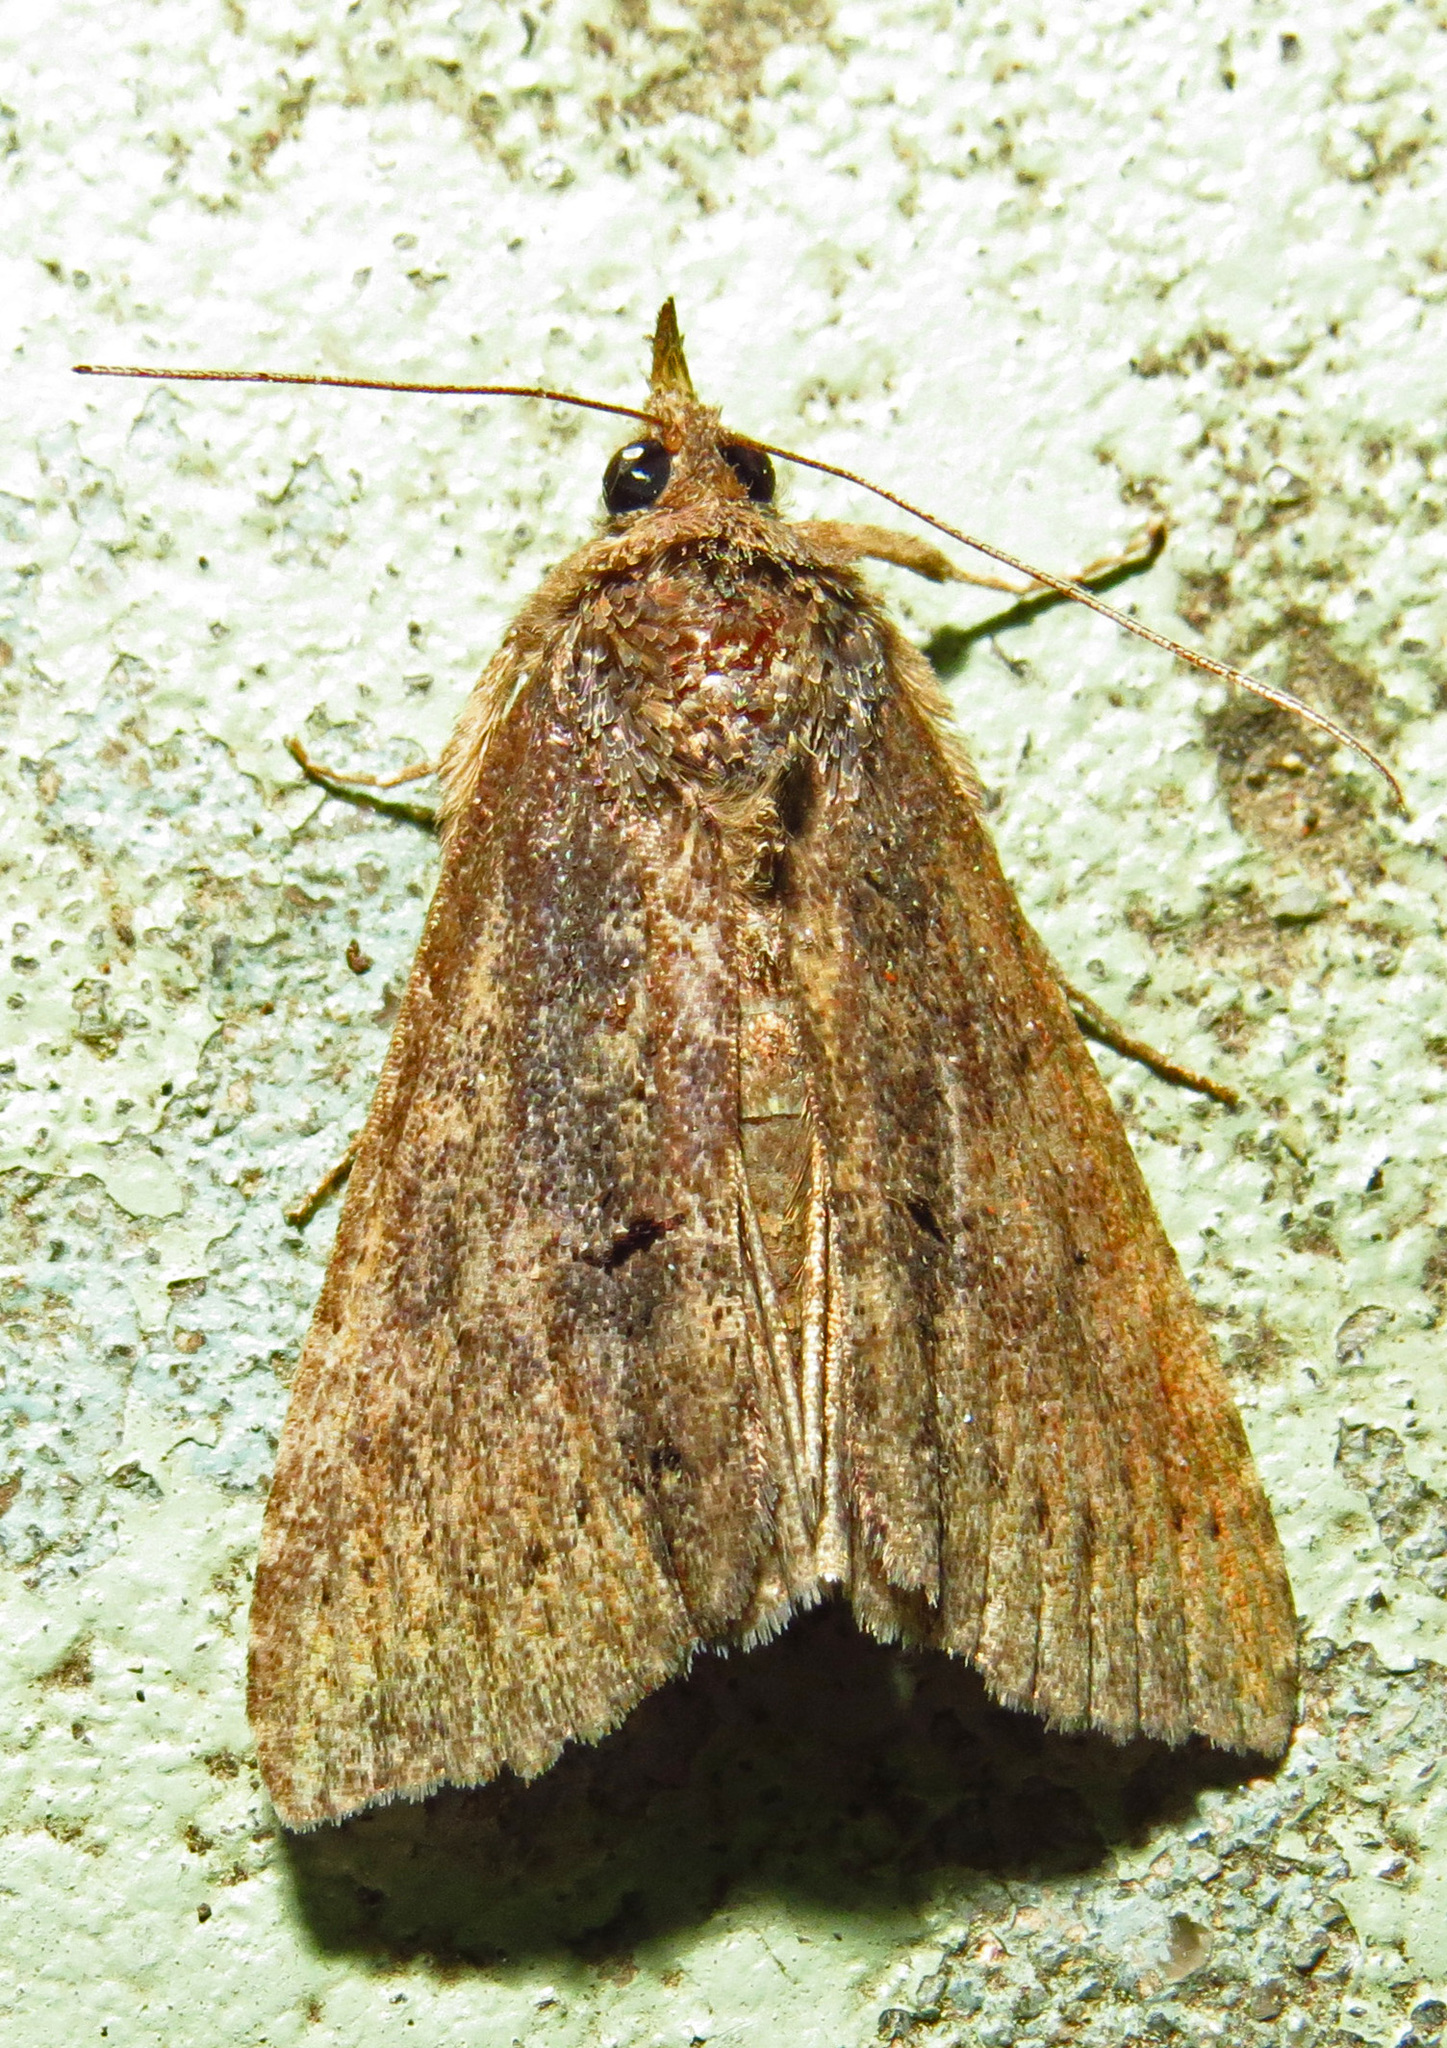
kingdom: Animalia
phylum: Arthropoda
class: Insecta
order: Lepidoptera
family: Erebidae
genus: Hypena
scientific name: Hypena scabra
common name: Green cloverworm
